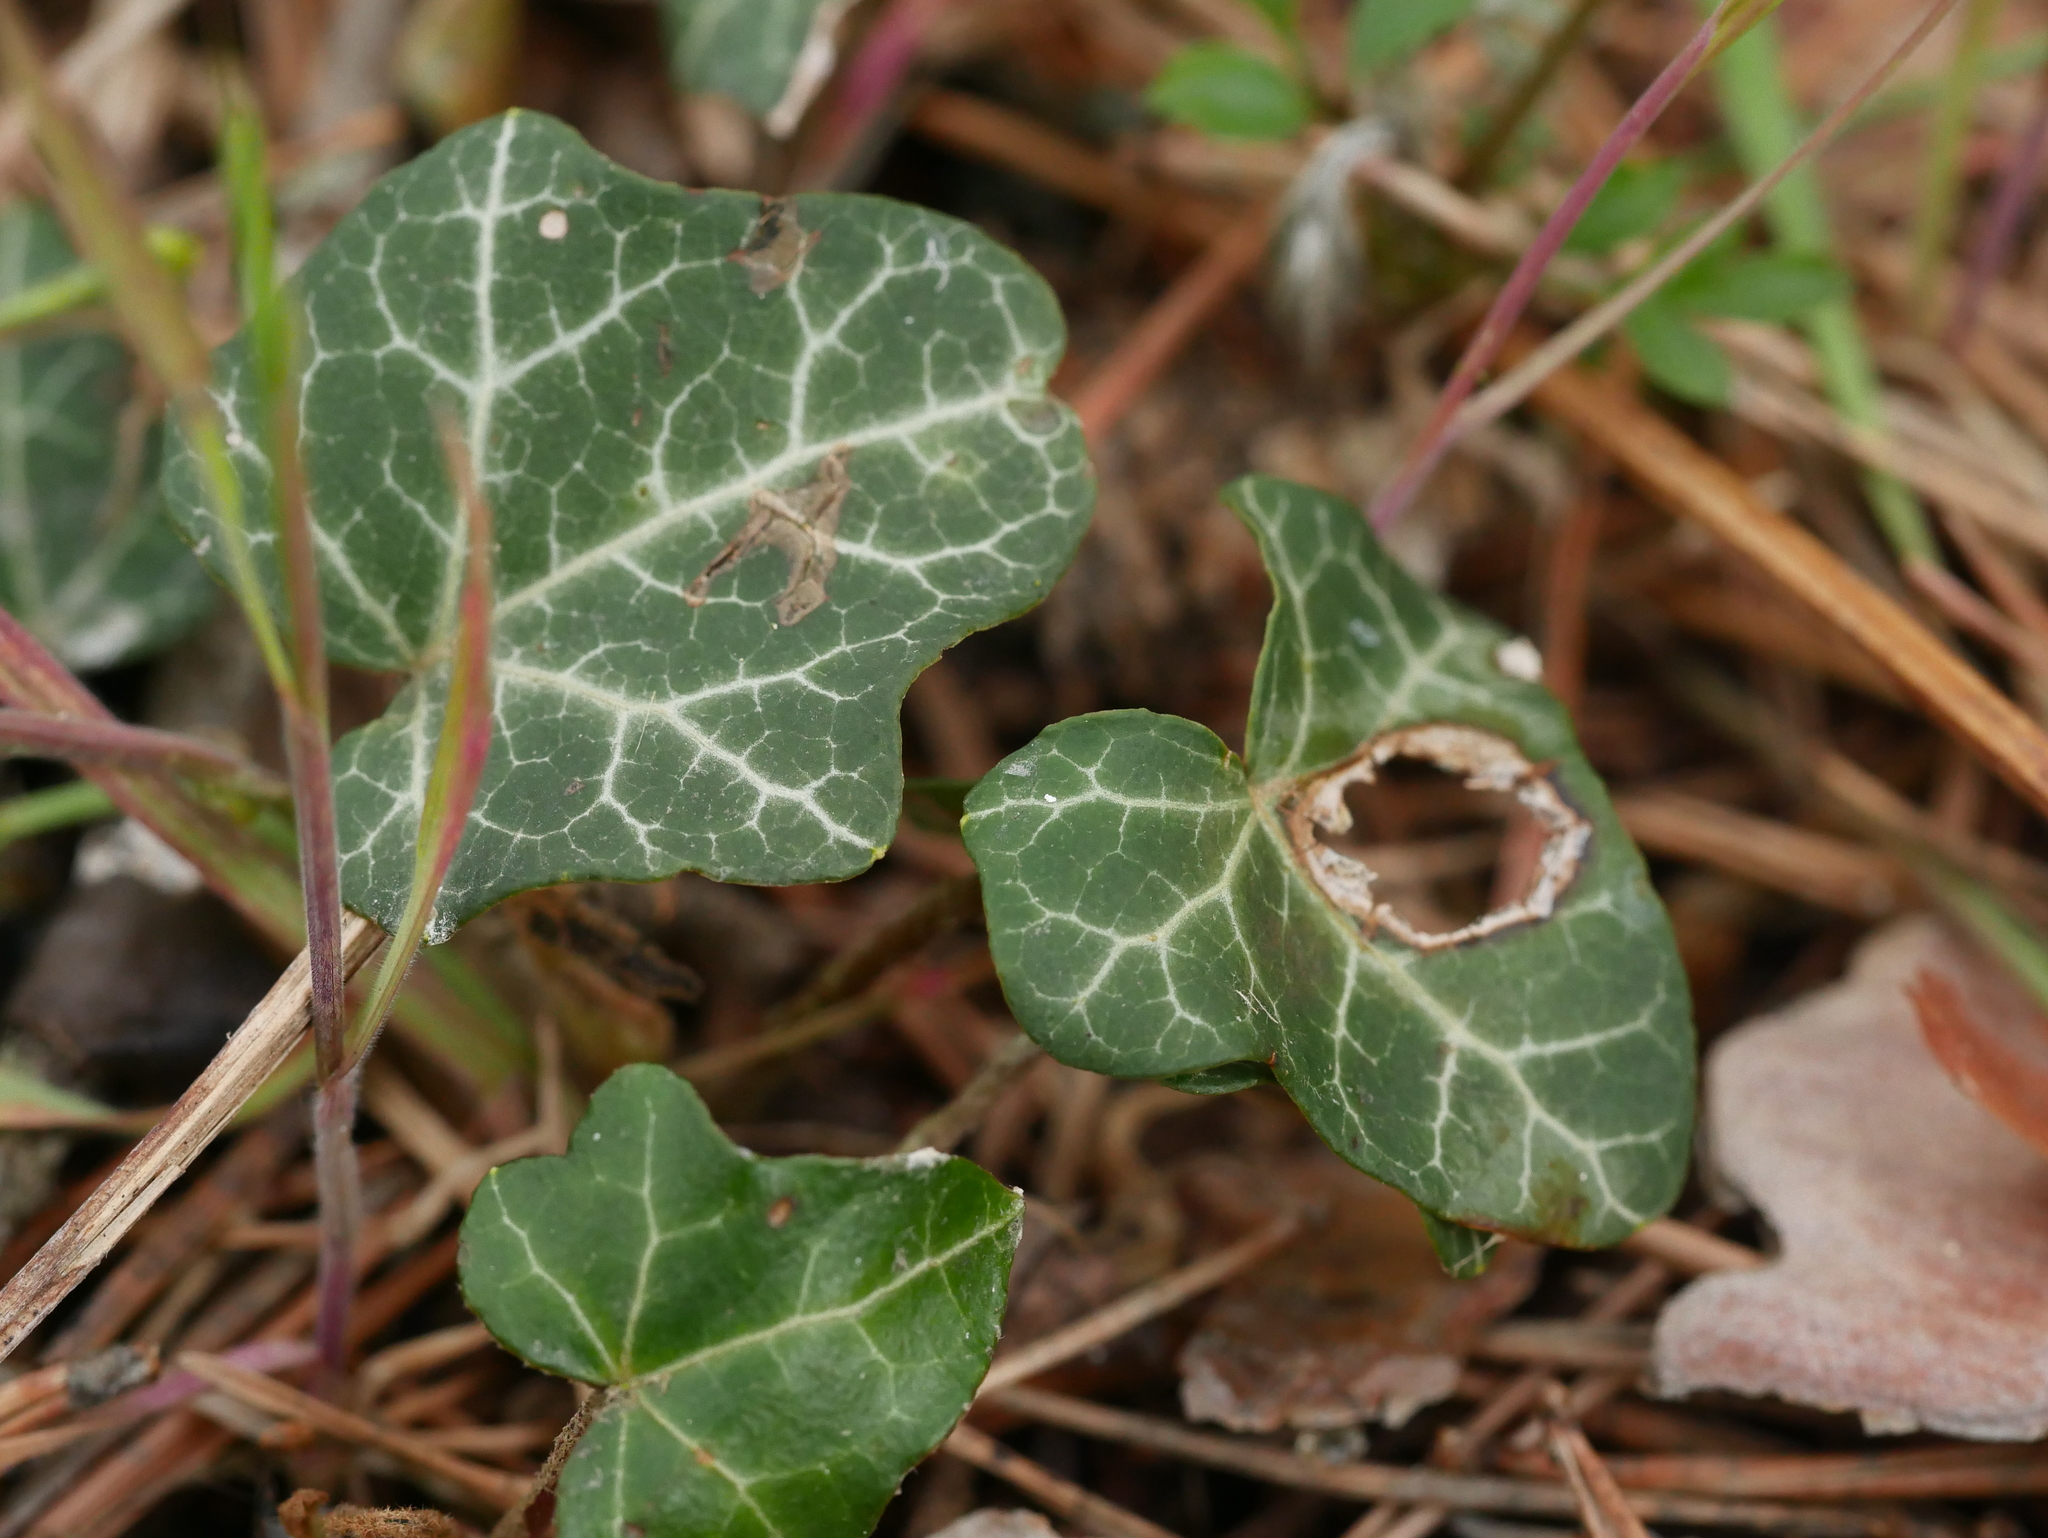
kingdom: Plantae
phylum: Tracheophyta
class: Magnoliopsida
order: Apiales
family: Araliaceae
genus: Hedera
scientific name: Hedera helix
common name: Ivy
